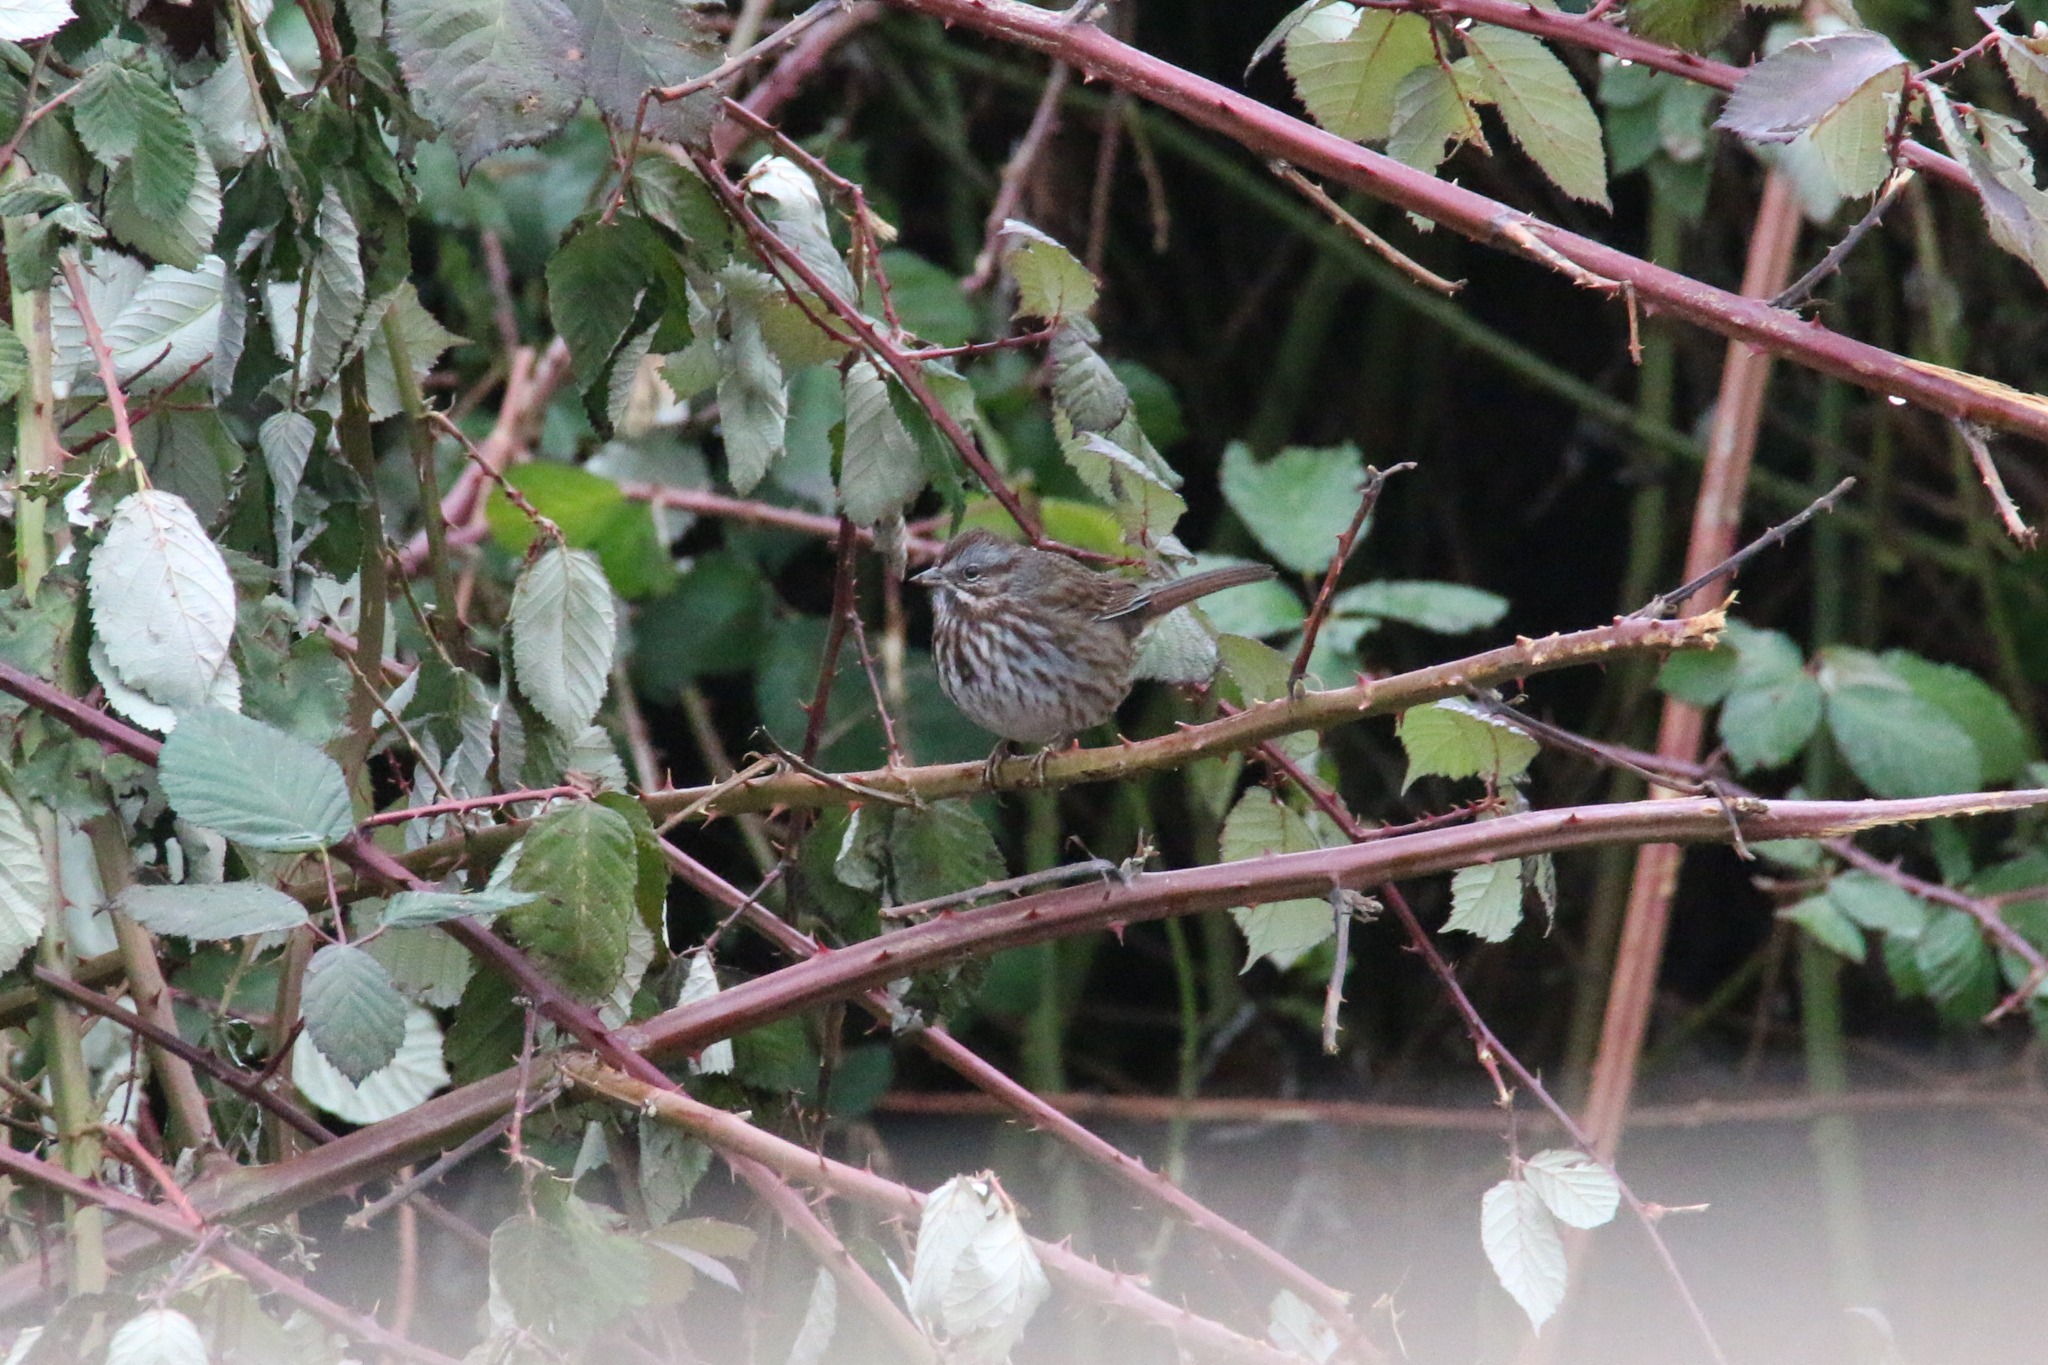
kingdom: Animalia
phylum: Chordata
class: Aves
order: Passeriformes
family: Passerellidae
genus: Melospiza
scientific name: Melospiza melodia
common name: Song sparrow
